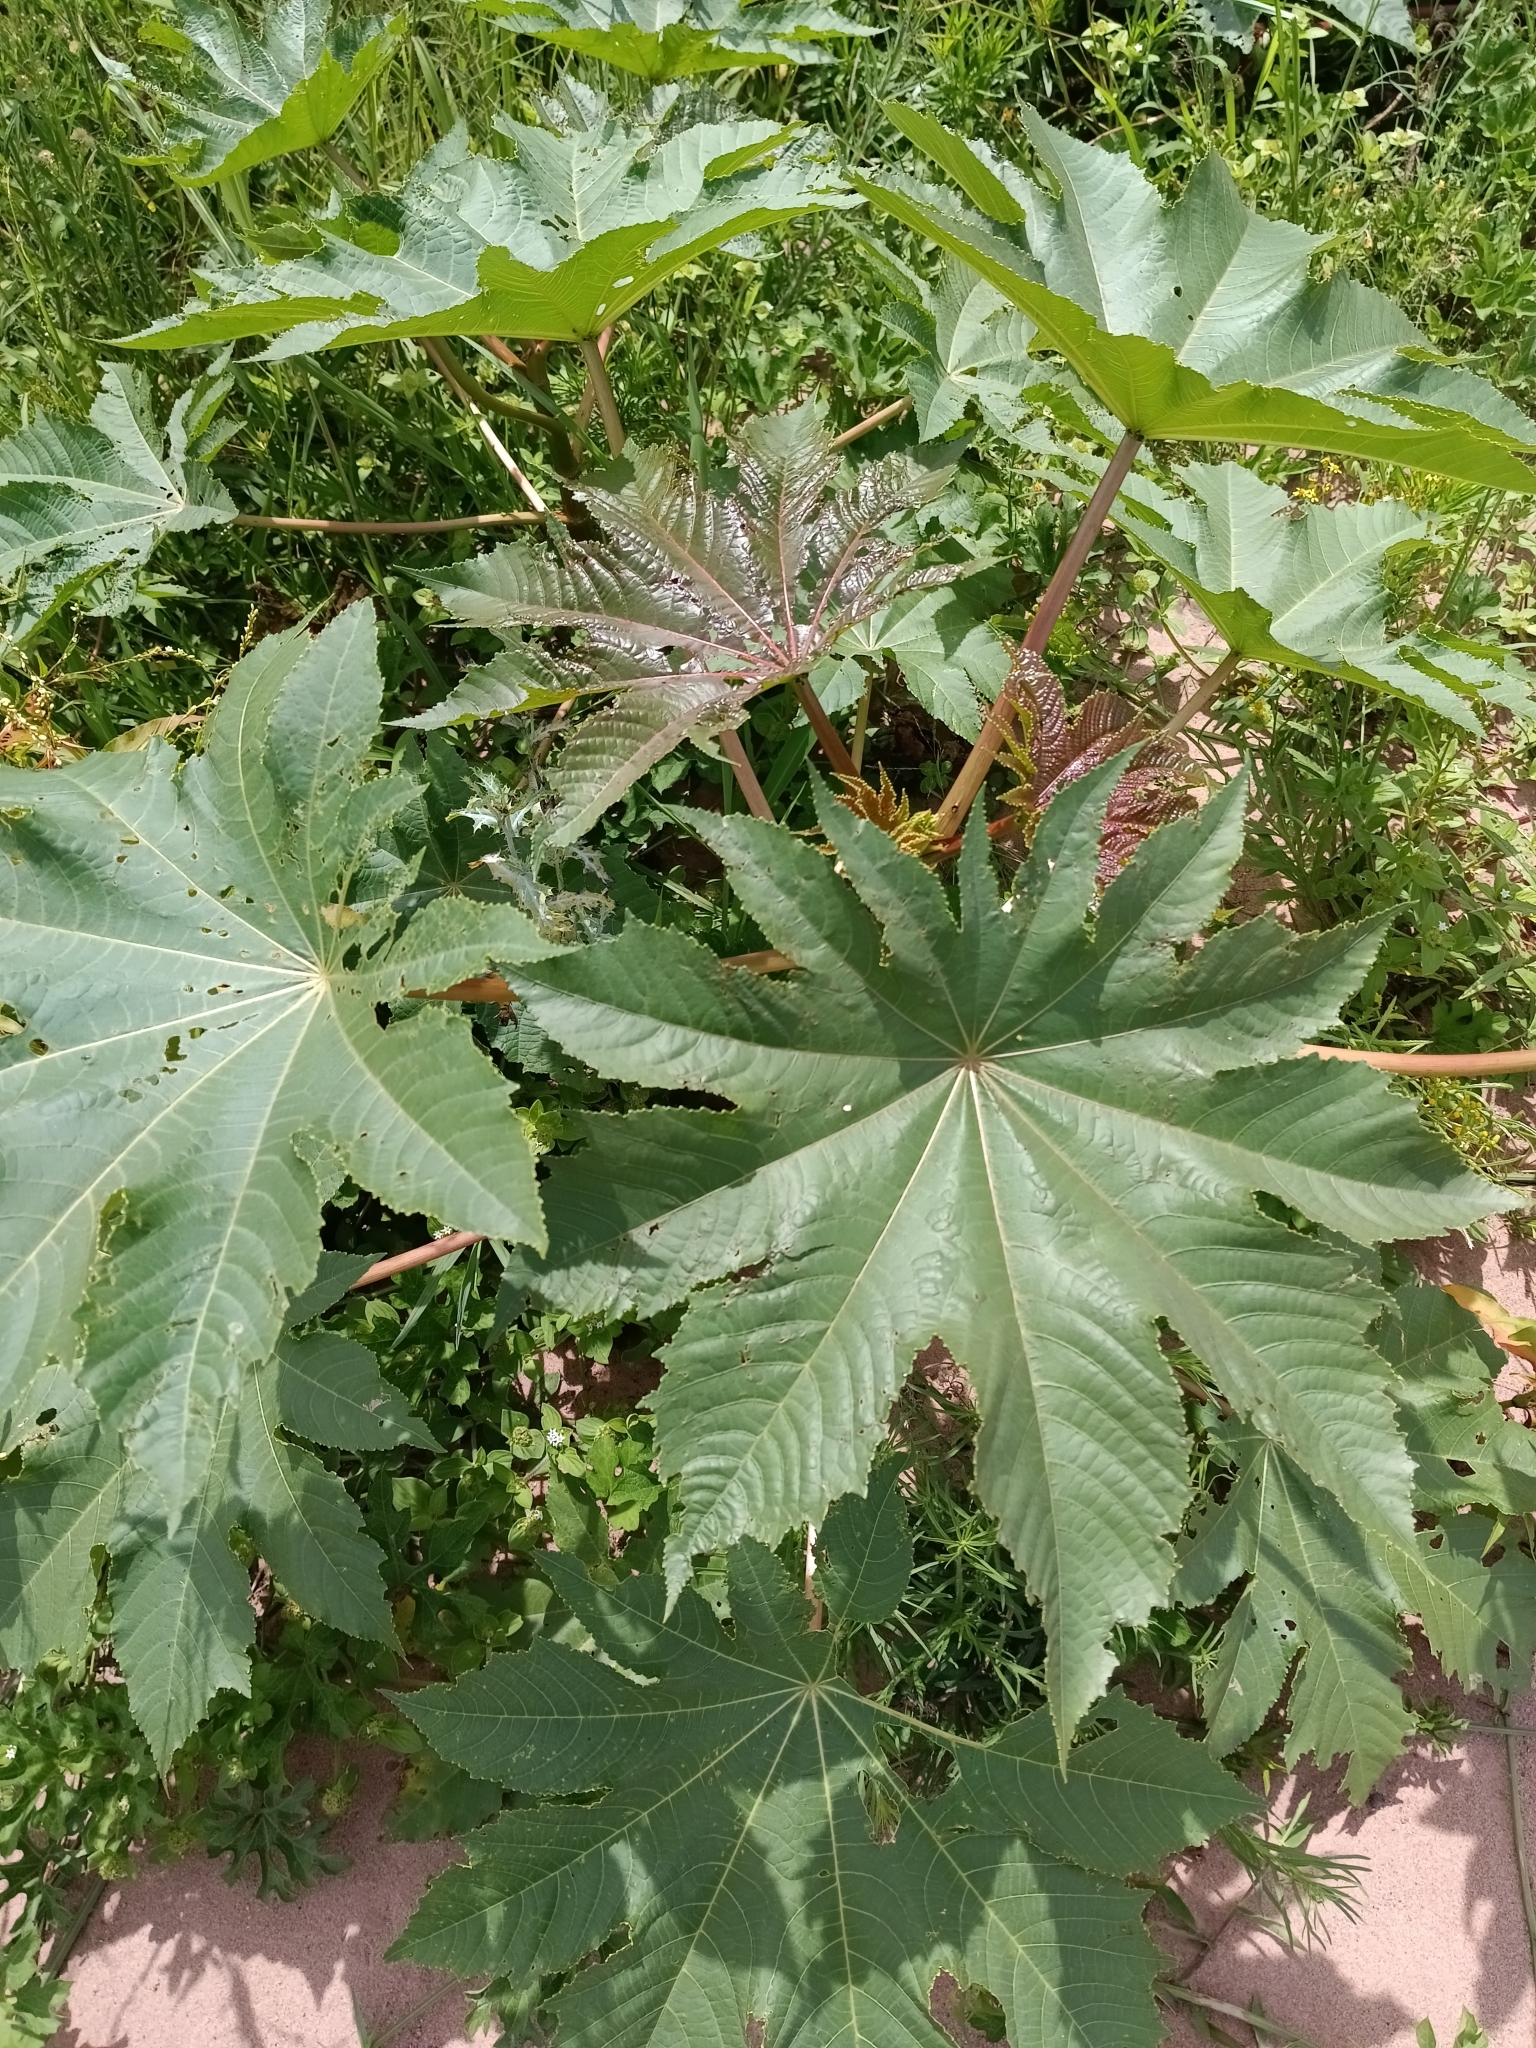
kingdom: Plantae
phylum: Tracheophyta
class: Magnoliopsida
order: Malpighiales
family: Euphorbiaceae
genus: Ricinus
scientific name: Ricinus communis
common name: Castor-oil-plant
